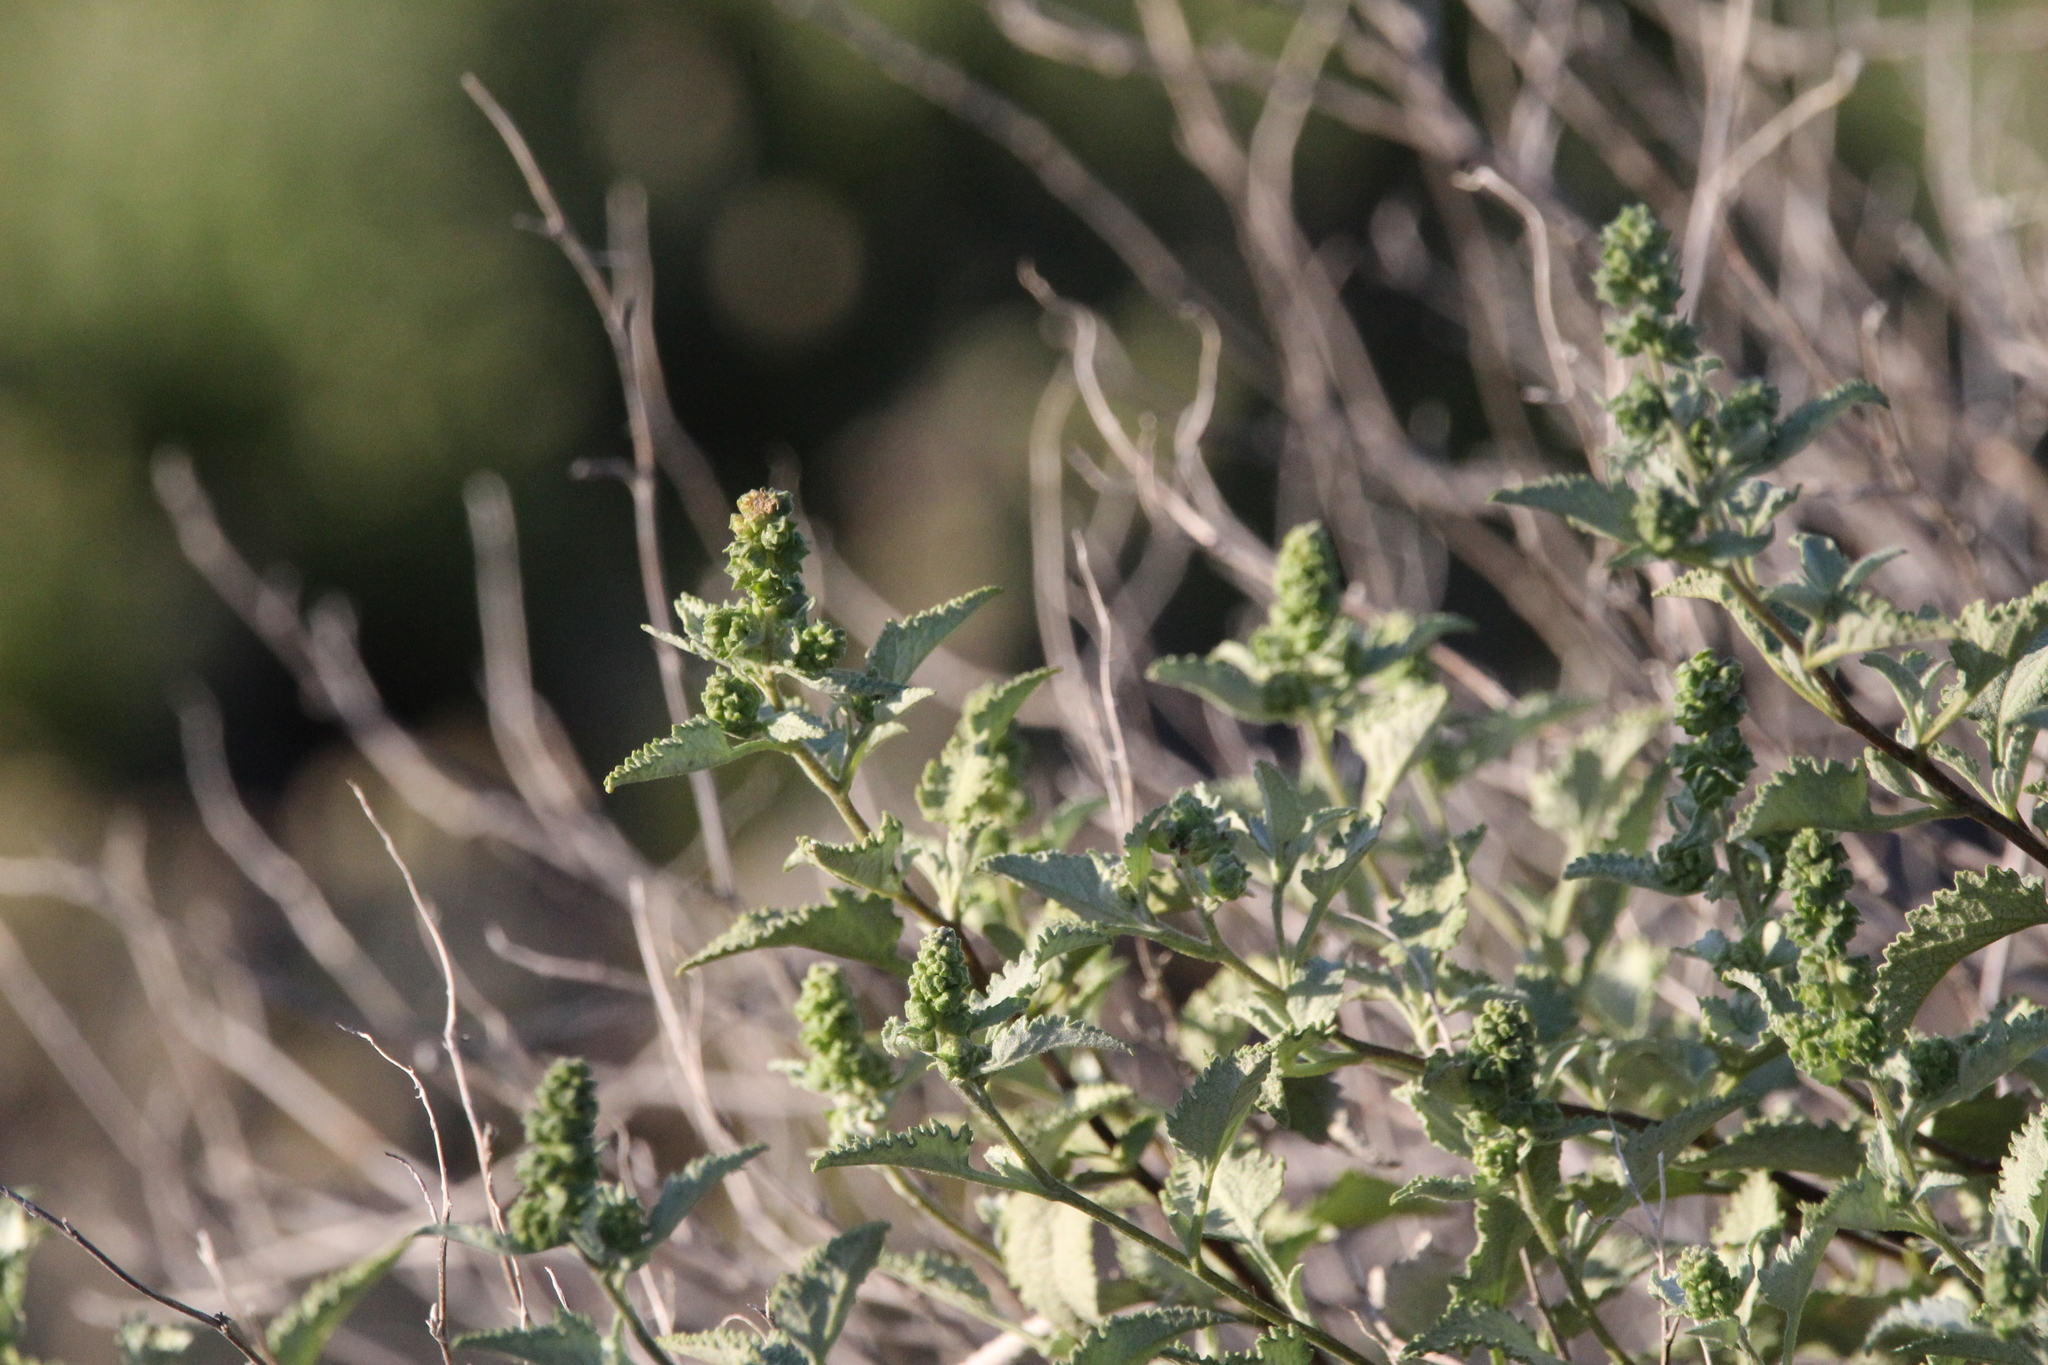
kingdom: Plantae
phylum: Tracheophyta
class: Magnoliopsida
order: Asterales
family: Asteraceae
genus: Ambrosia
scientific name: Ambrosia deltoidea
